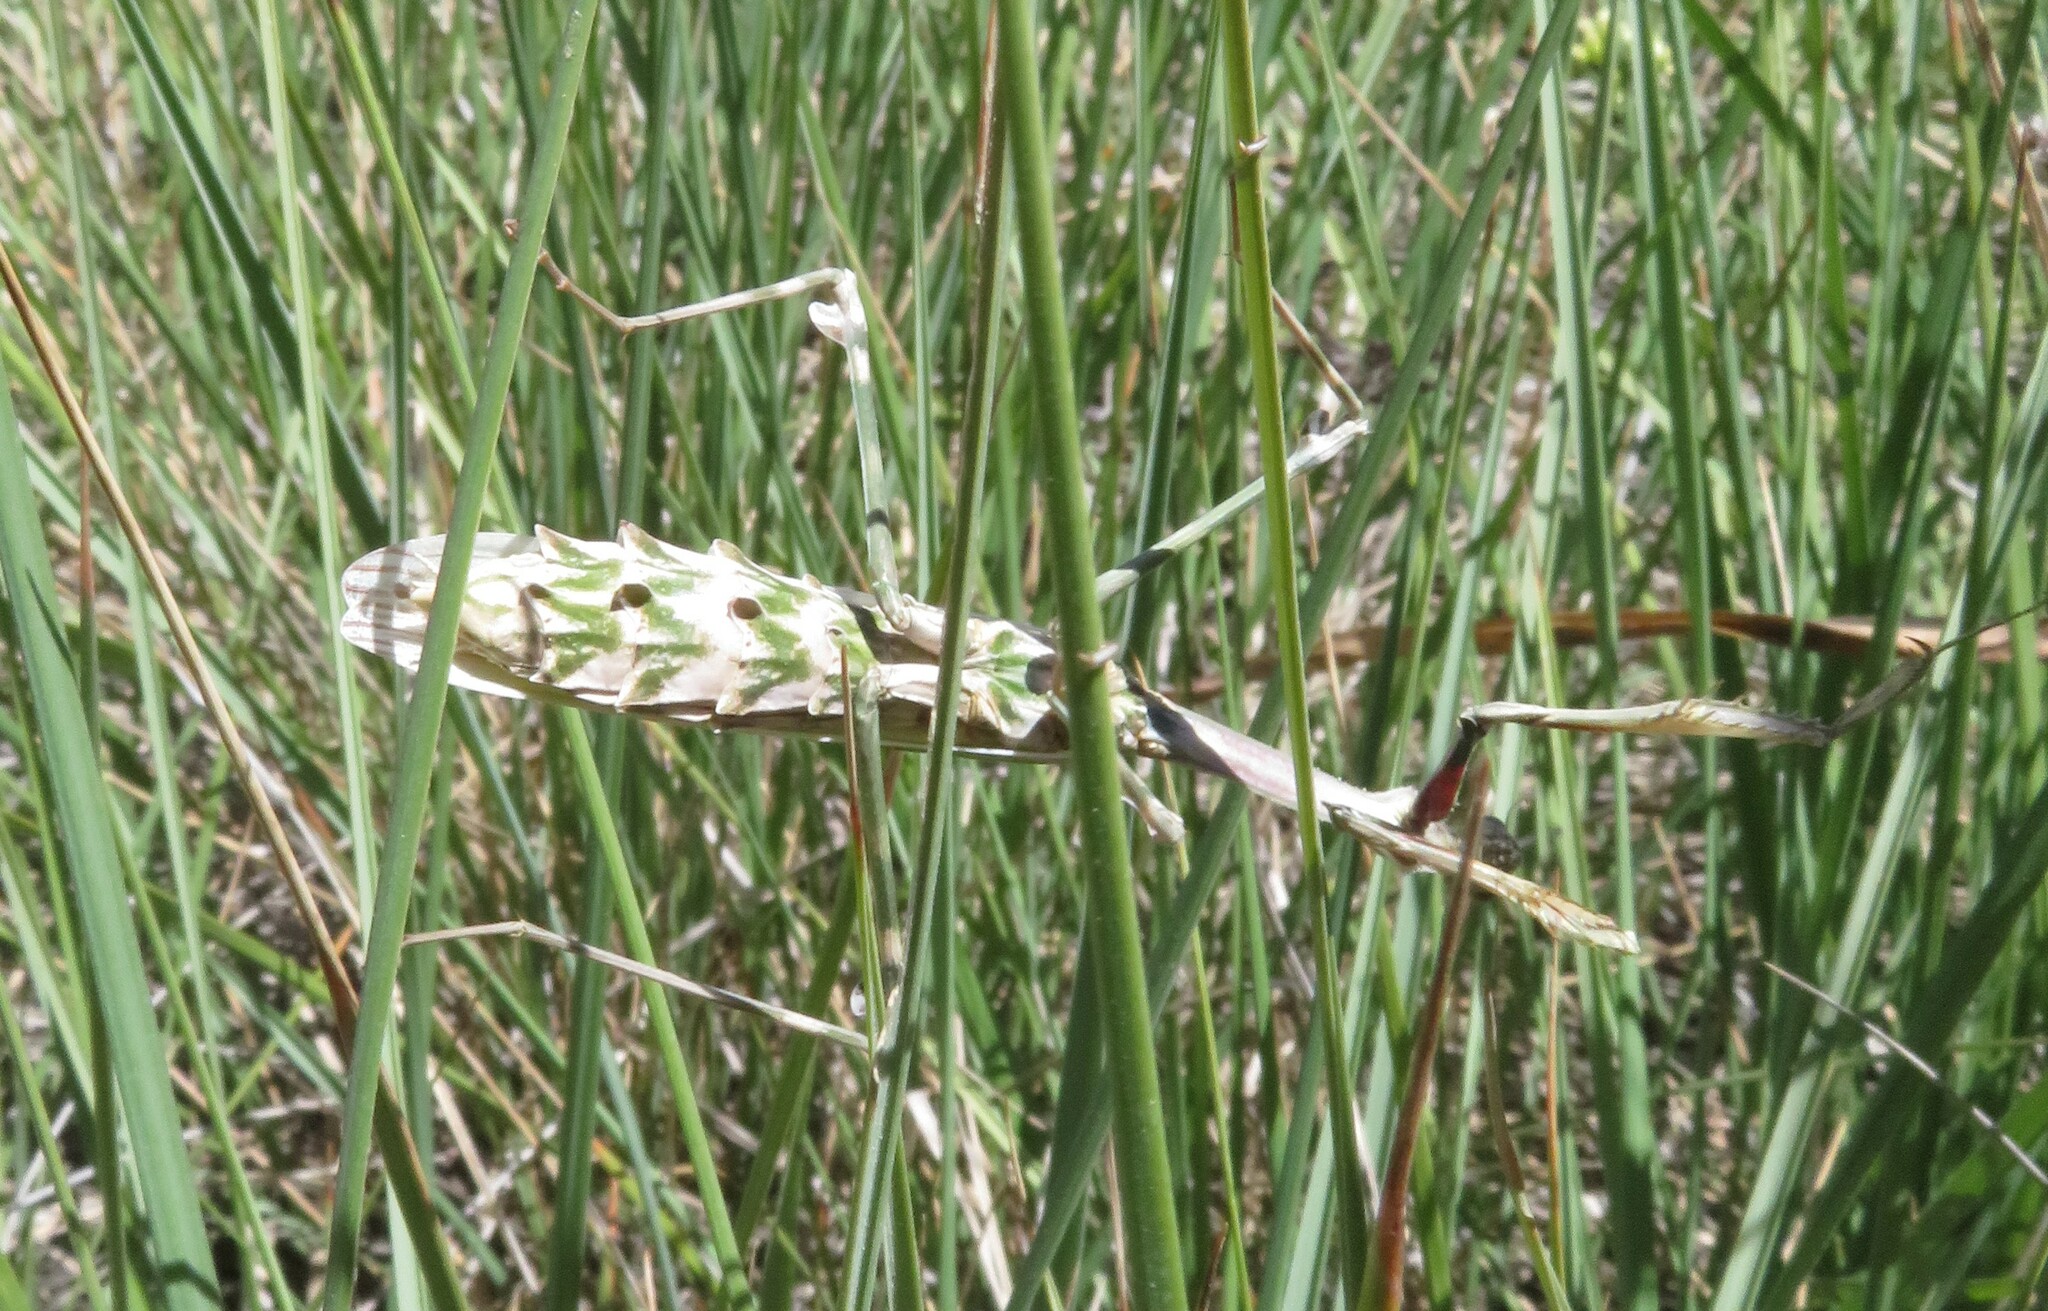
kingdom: Animalia
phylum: Arthropoda
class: Insecta
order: Mantodea
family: Empusidae
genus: Empusa
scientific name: Empusa pennata
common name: Conehead mantis
